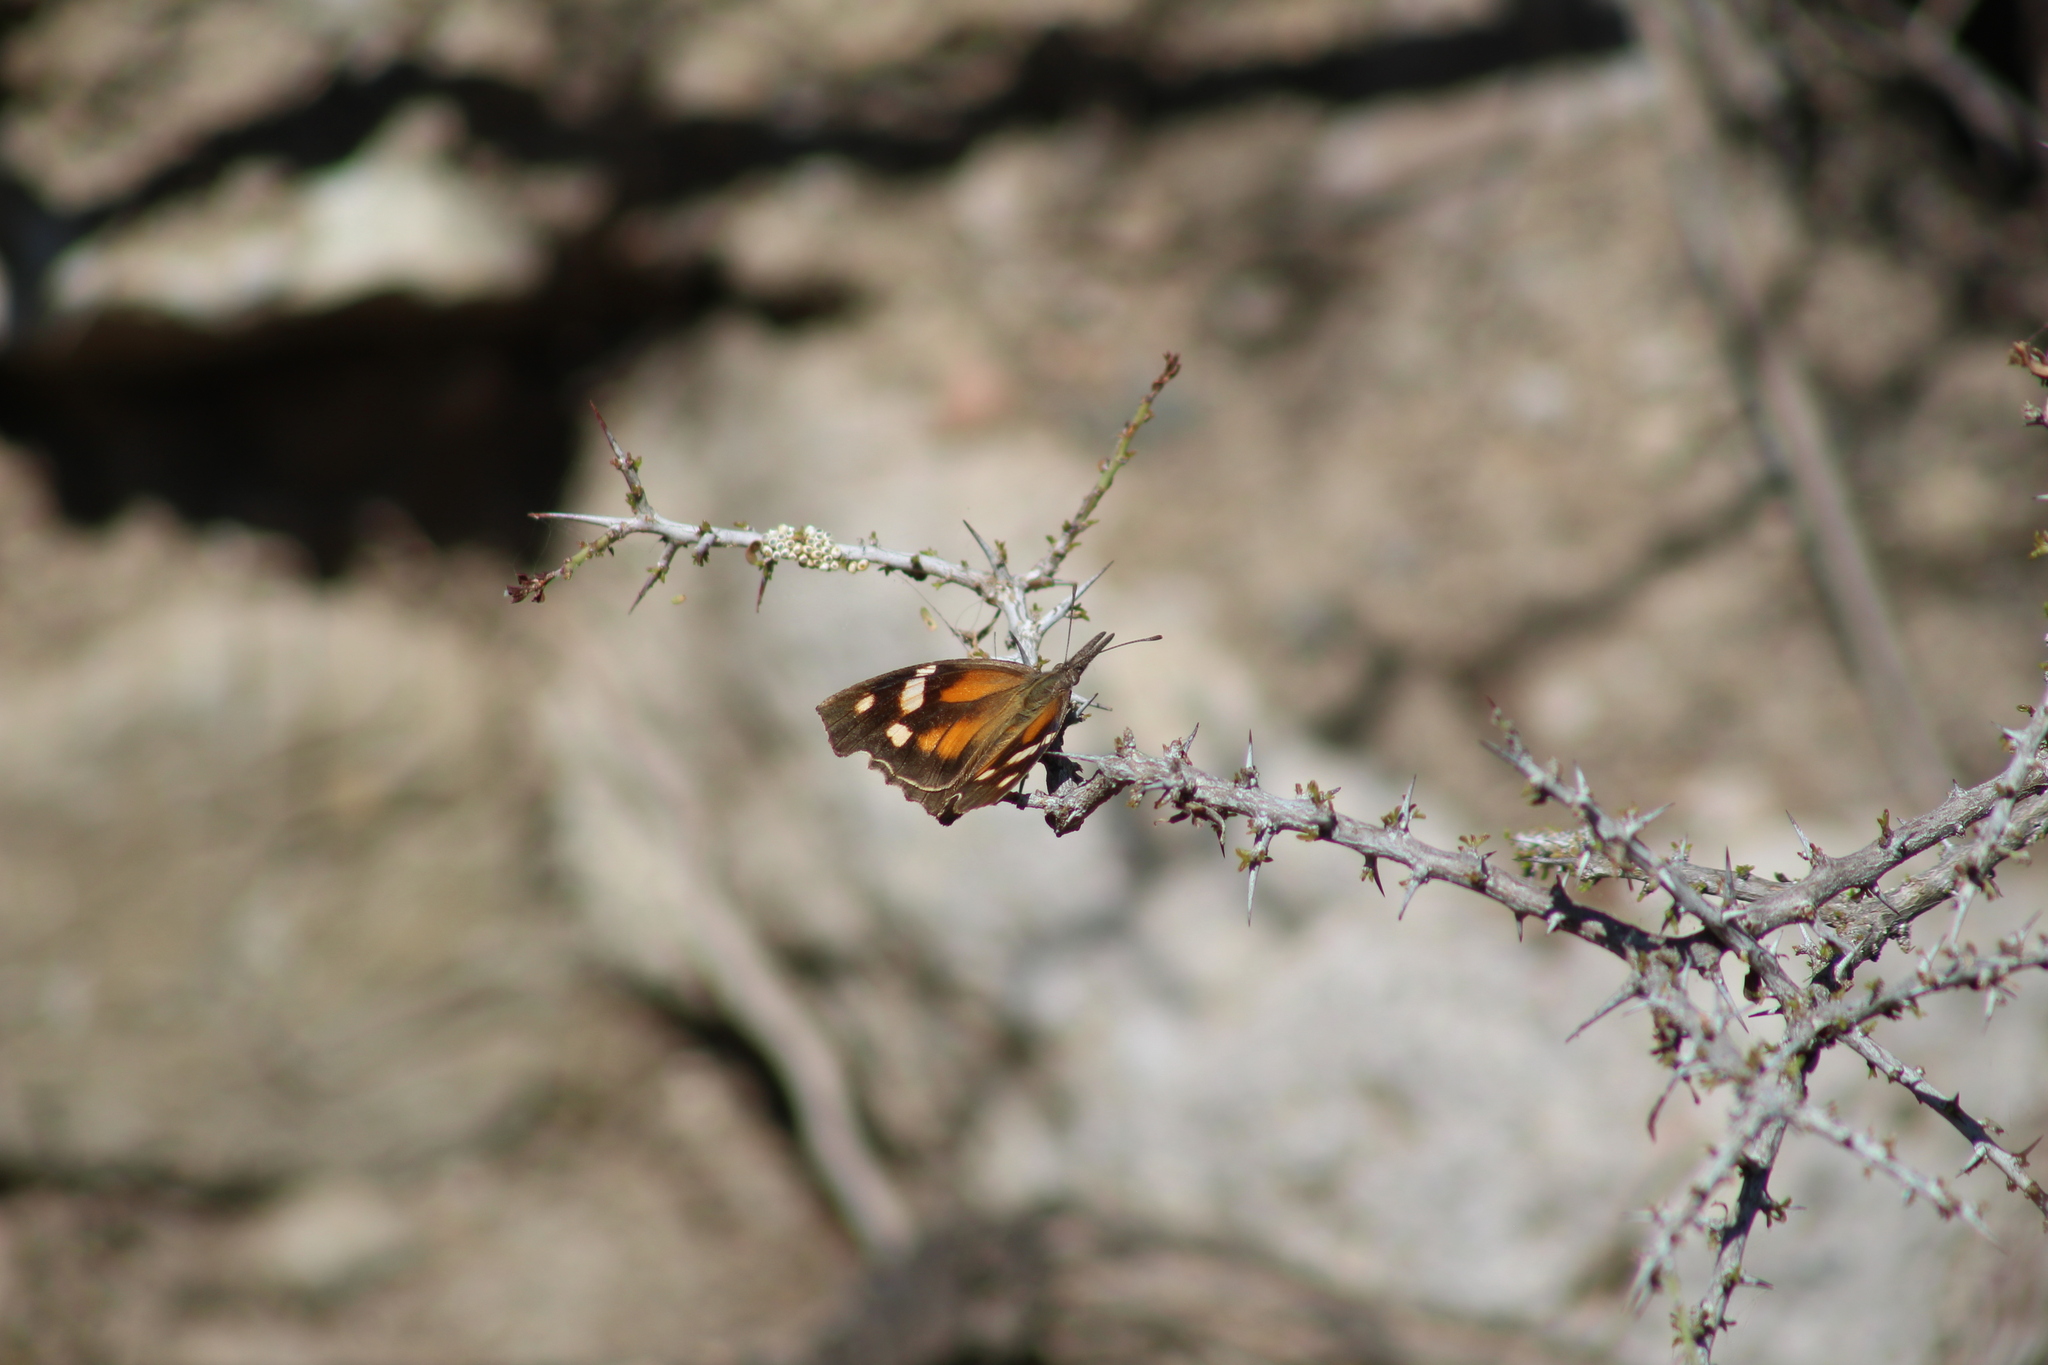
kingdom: Animalia
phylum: Arthropoda
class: Insecta
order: Lepidoptera
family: Nymphalidae
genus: Libytheana
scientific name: Libytheana carinenta
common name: American snout
